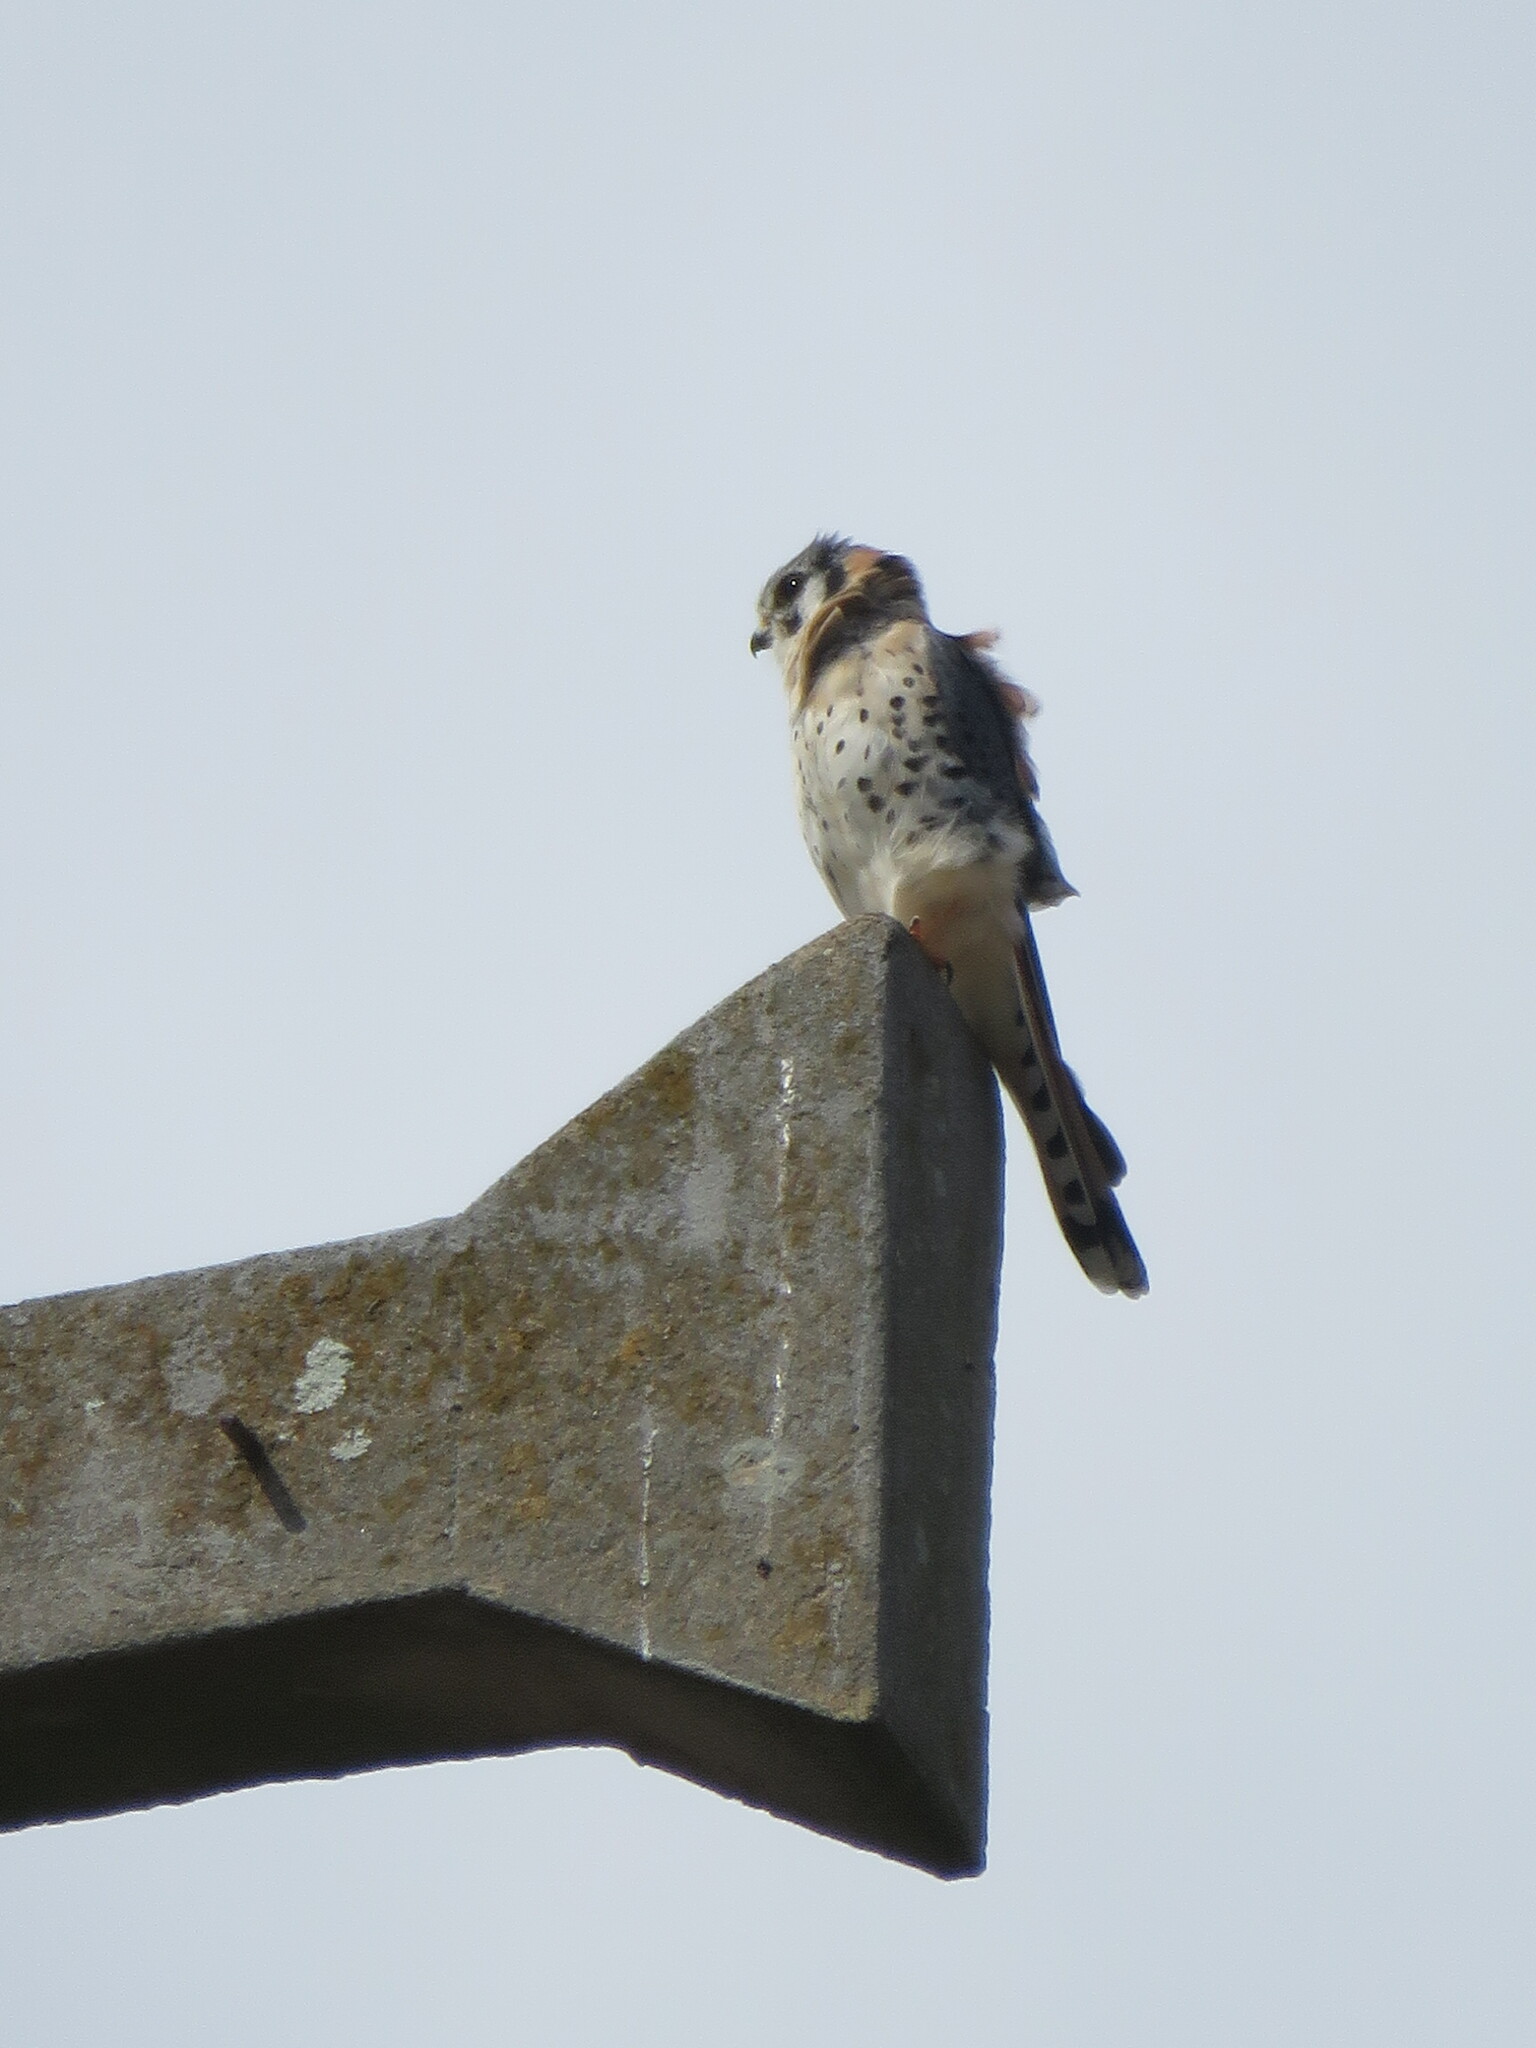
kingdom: Animalia
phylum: Chordata
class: Aves
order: Falconiformes
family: Falconidae
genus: Falco
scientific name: Falco sparverius
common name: American kestrel
